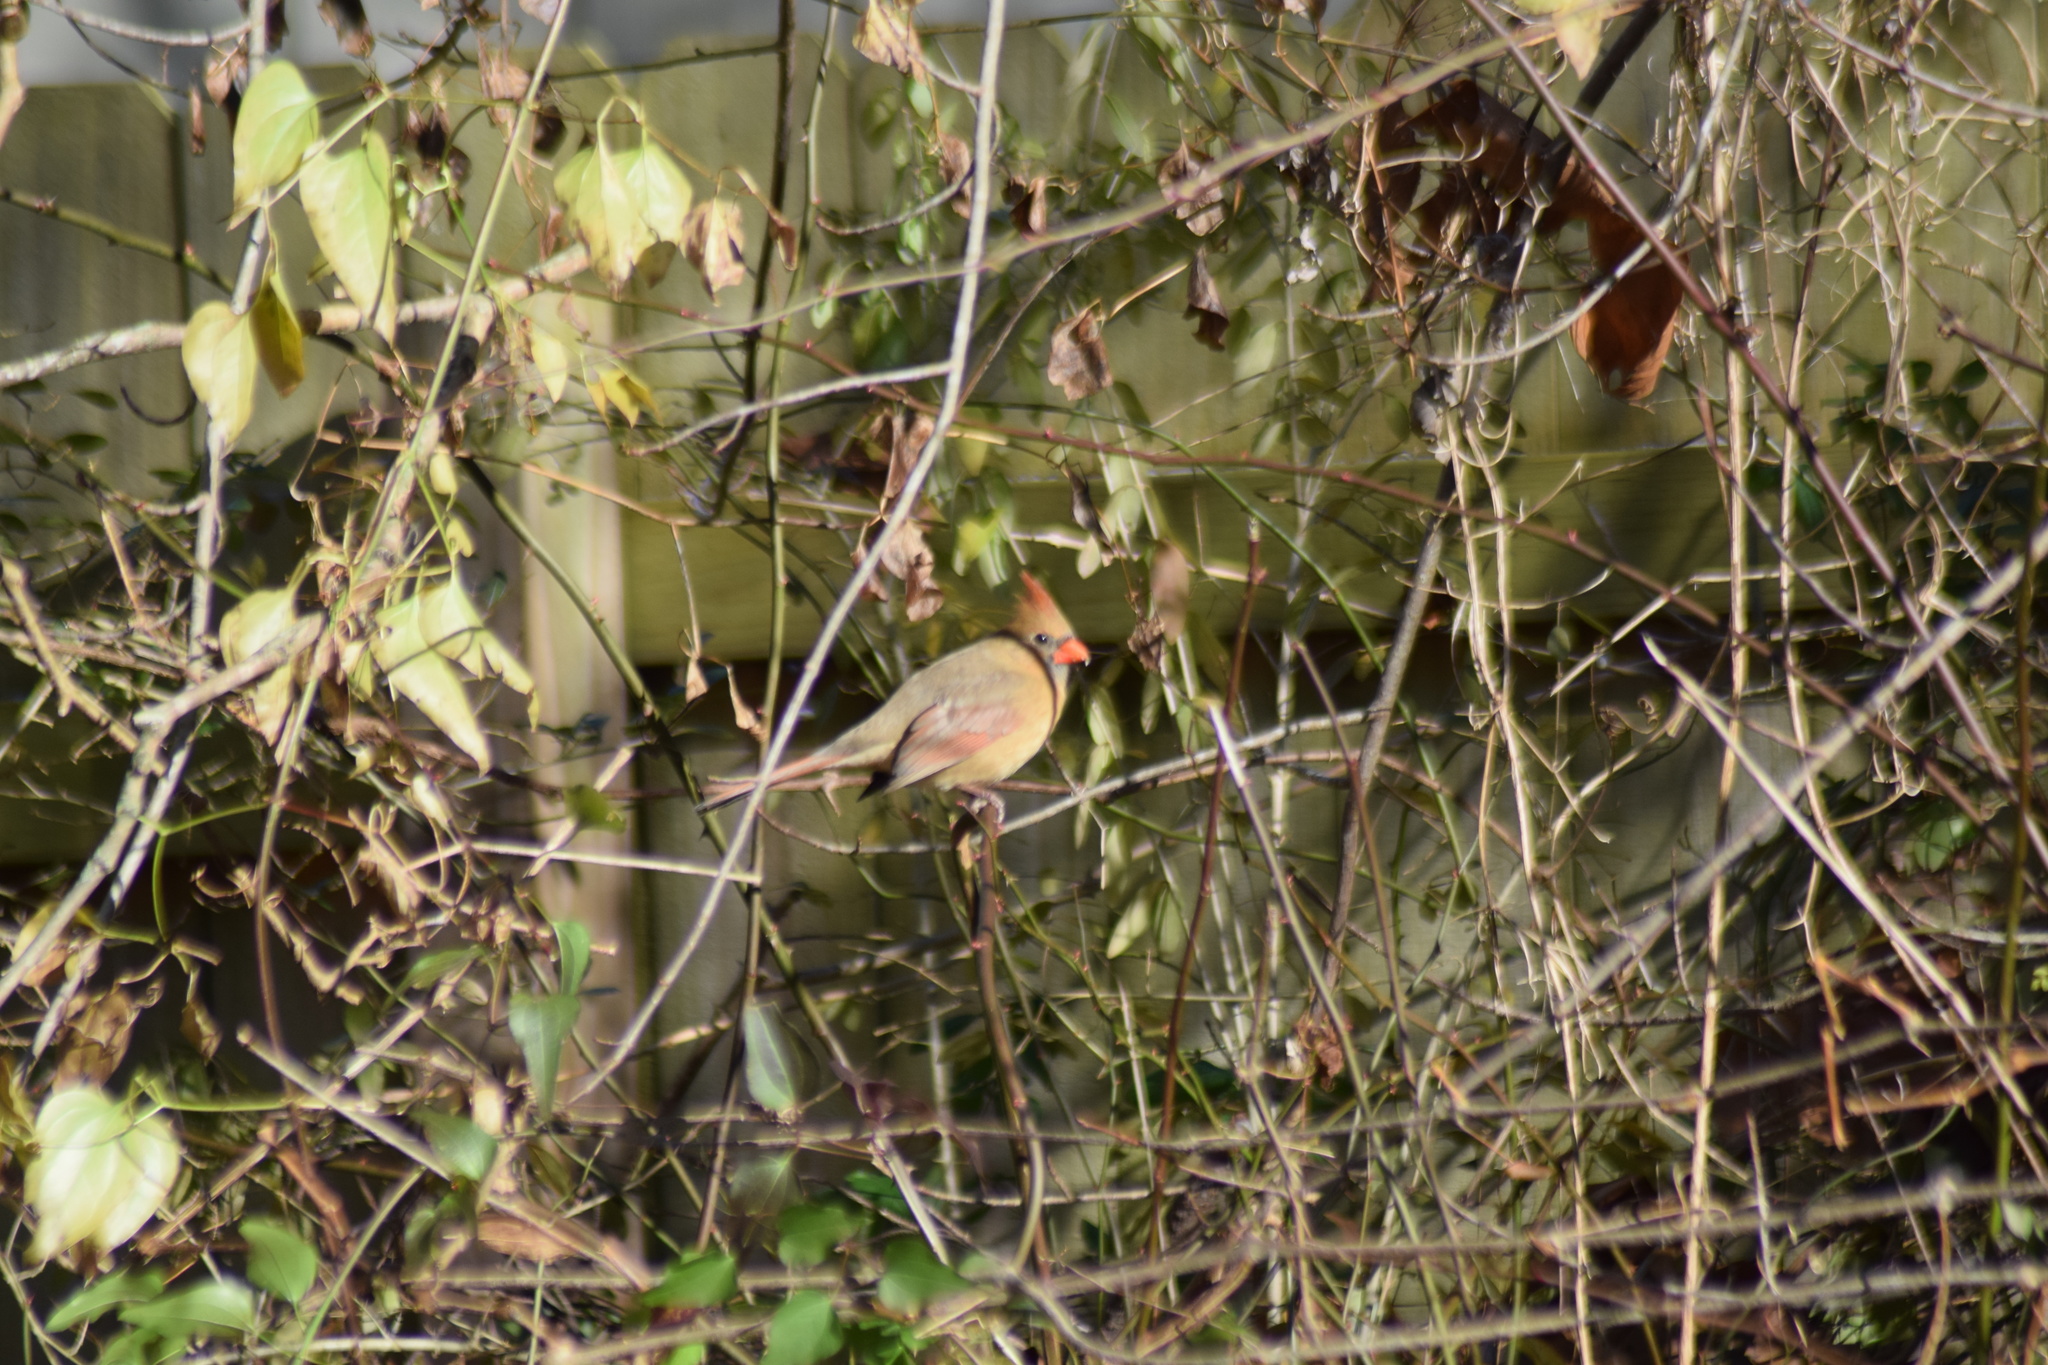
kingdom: Animalia
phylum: Chordata
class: Aves
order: Passeriformes
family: Cardinalidae
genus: Cardinalis
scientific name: Cardinalis cardinalis
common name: Northern cardinal
